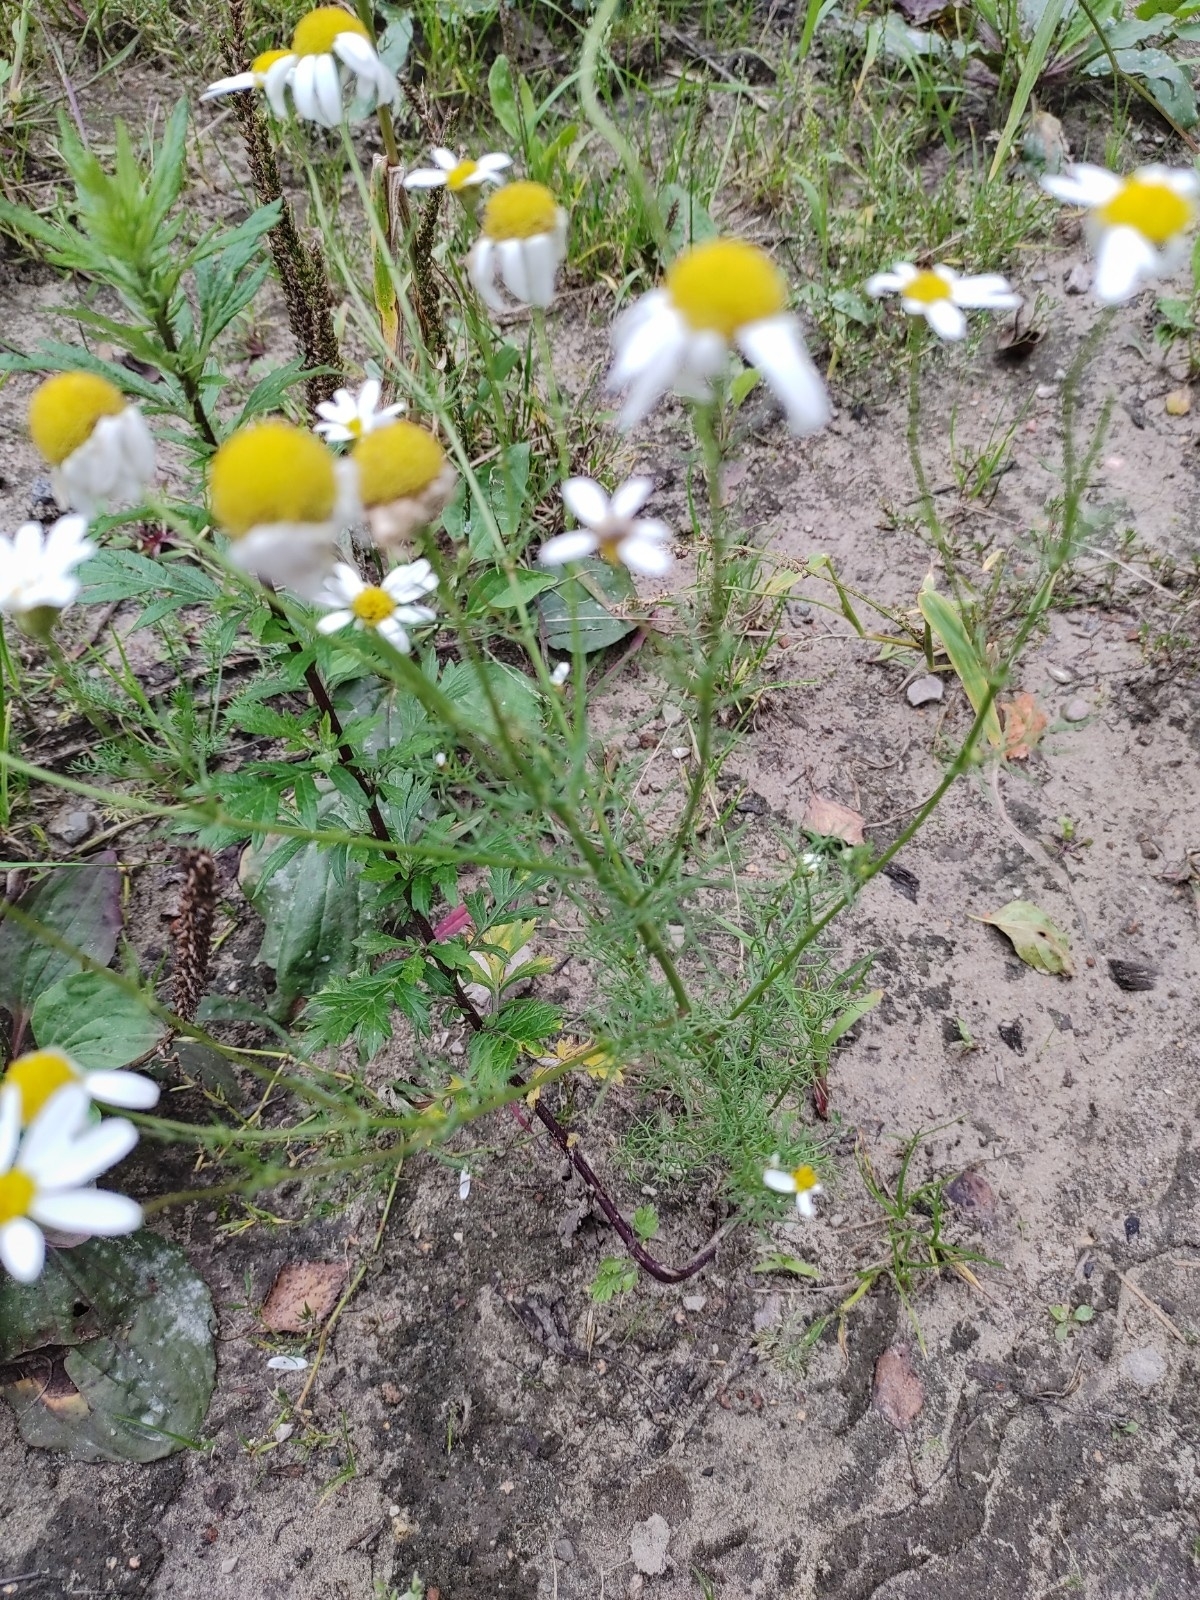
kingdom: Plantae
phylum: Tracheophyta
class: Magnoliopsida
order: Asterales
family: Asteraceae
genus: Tripleurospermum
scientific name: Tripleurospermum inodorum
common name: Scentless mayweed
